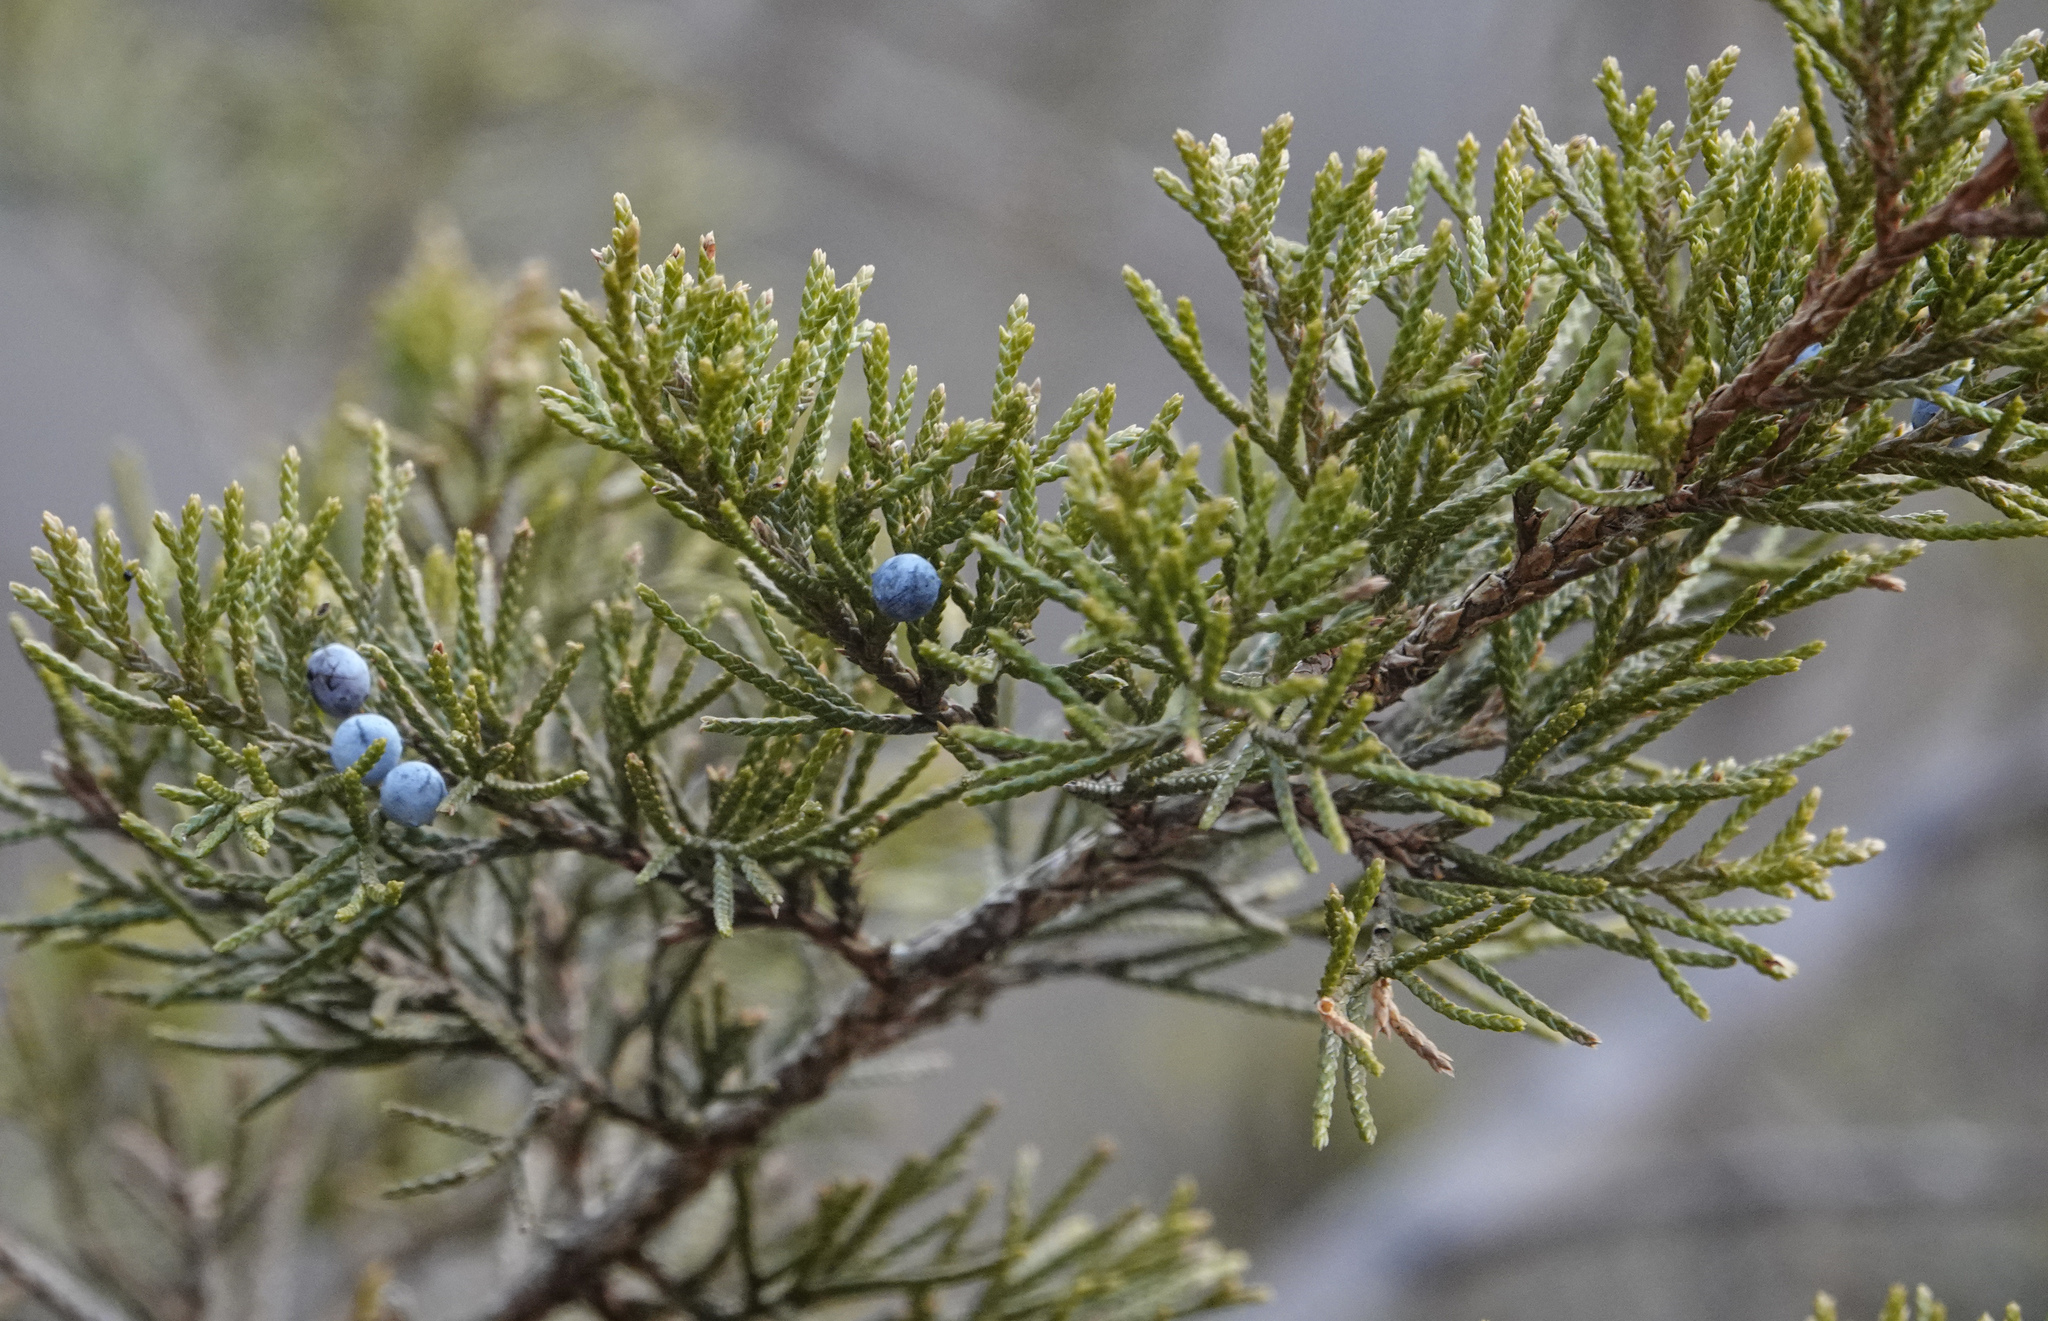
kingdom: Plantae
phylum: Tracheophyta
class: Pinopsida
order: Pinales
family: Cupressaceae
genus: Juniperus
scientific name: Juniperus virginiana
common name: Red juniper
